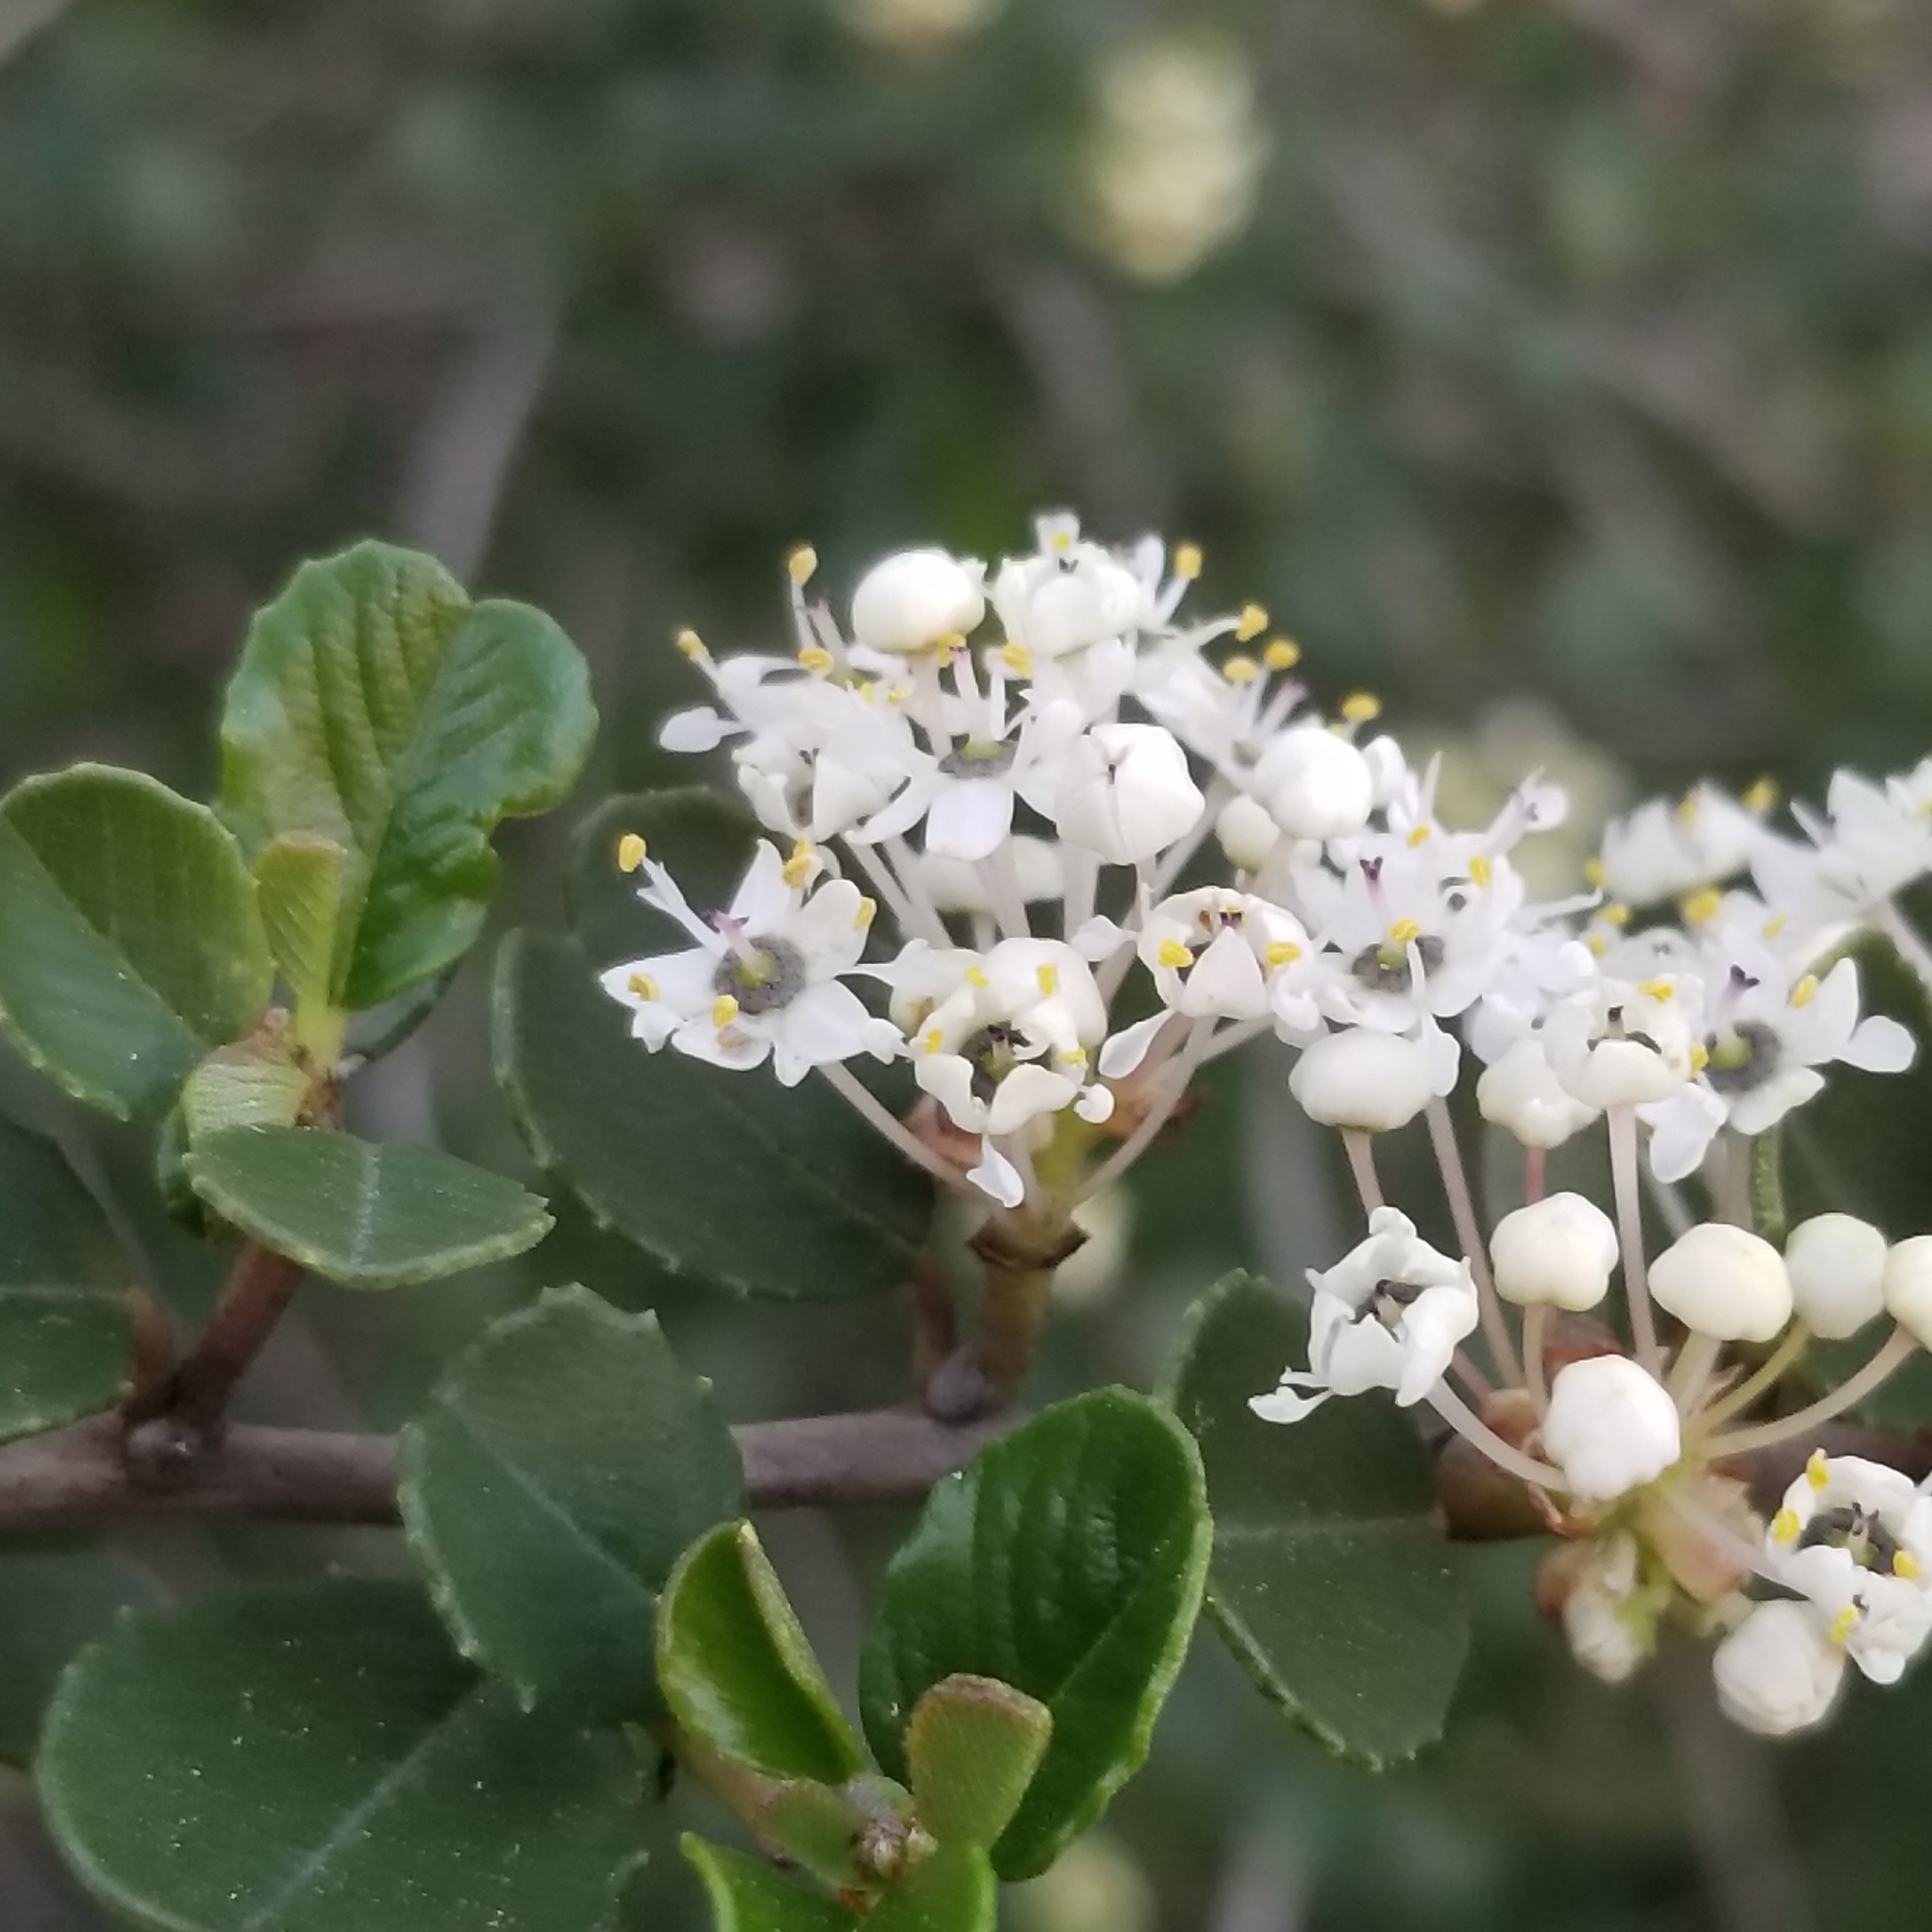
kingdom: Plantae
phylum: Tracheophyta
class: Magnoliopsida
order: Rosales
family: Rhamnaceae
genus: Ceanothus
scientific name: Ceanothus verrucosus
